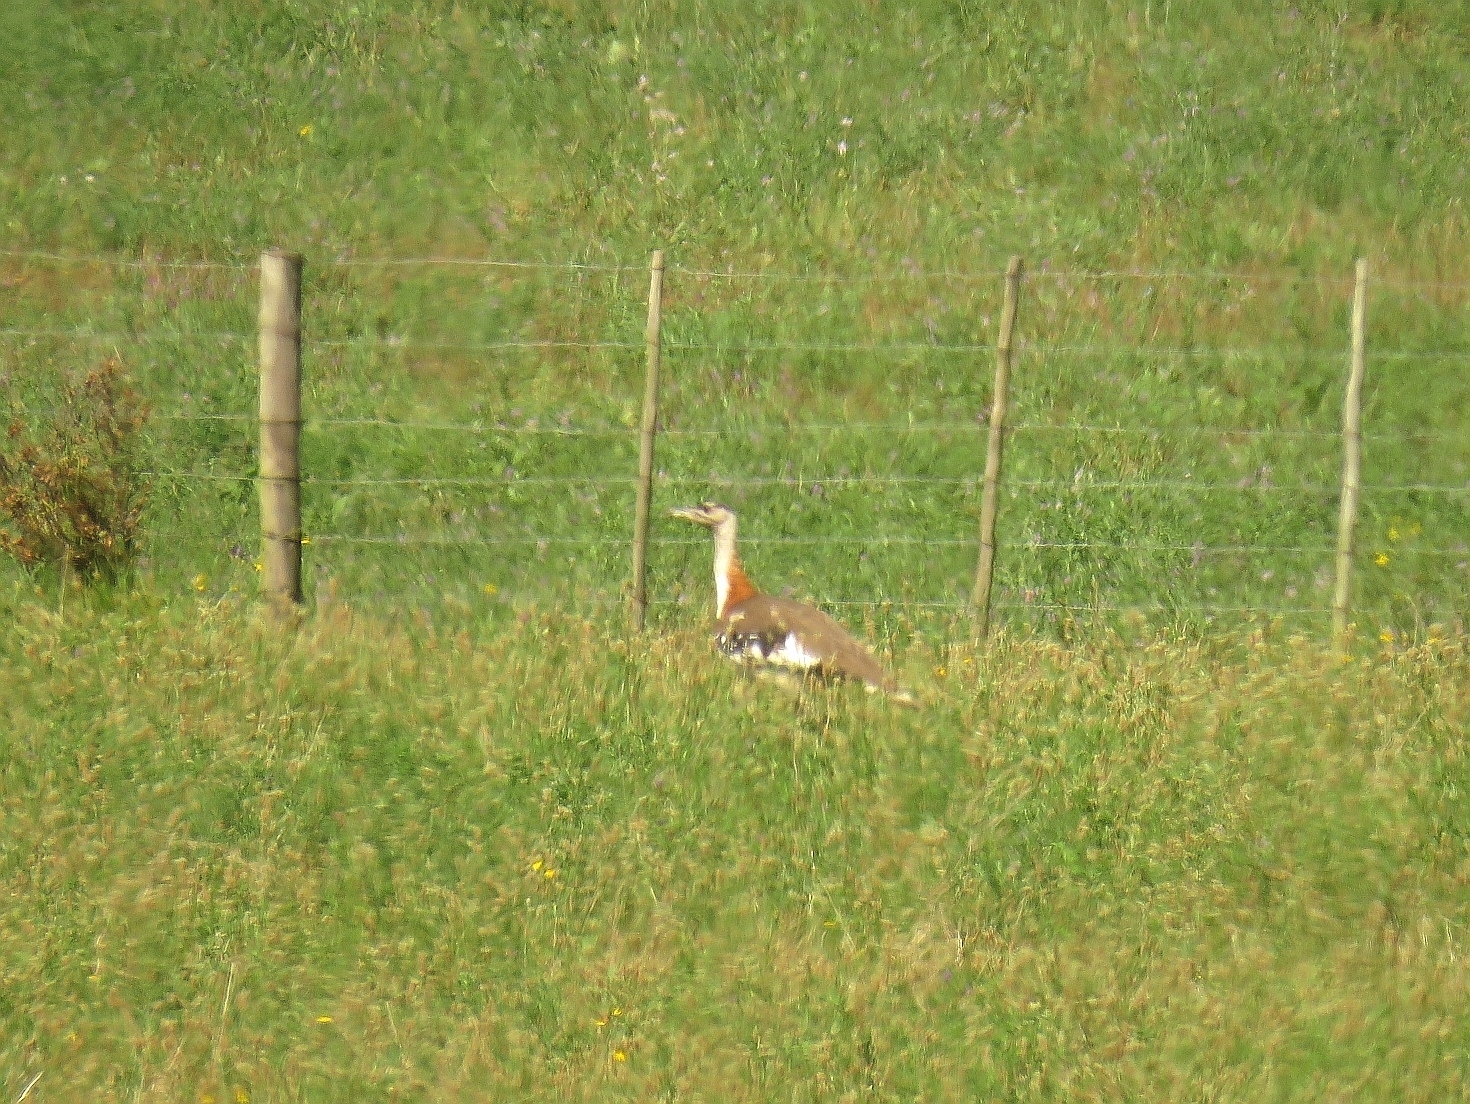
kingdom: Animalia
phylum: Chordata
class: Aves
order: Otidiformes
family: Otididae
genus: Neotis
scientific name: Neotis denhami
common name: Denham's bustard
